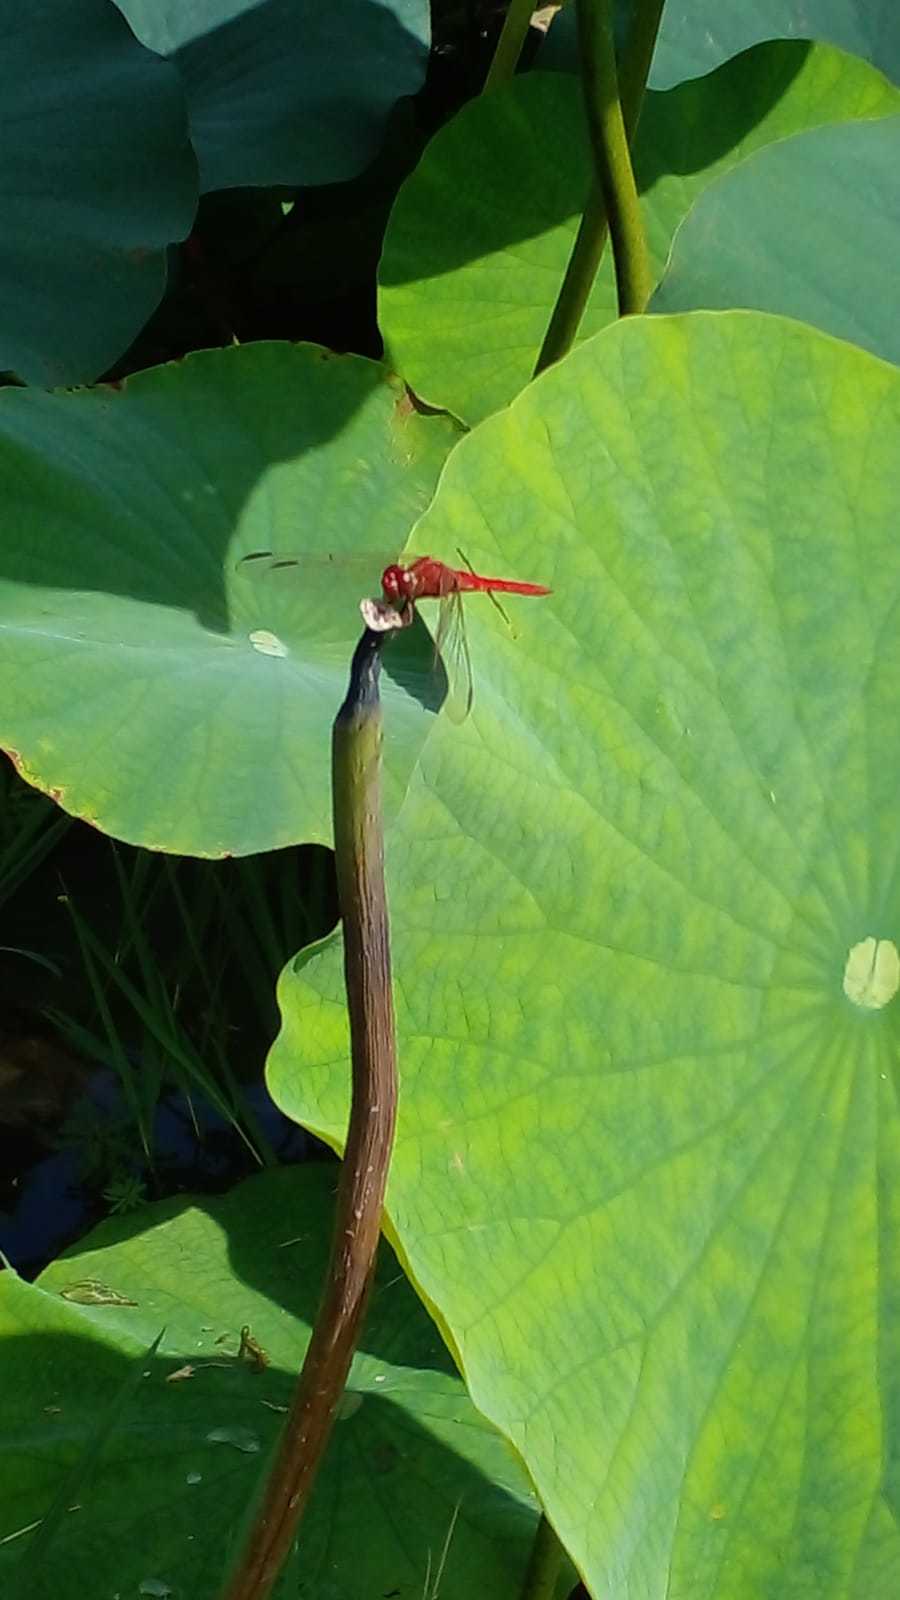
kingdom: Animalia
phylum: Arthropoda
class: Insecta
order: Odonata
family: Libellulidae
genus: Orthemis
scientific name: Orthemis nodiplaga
